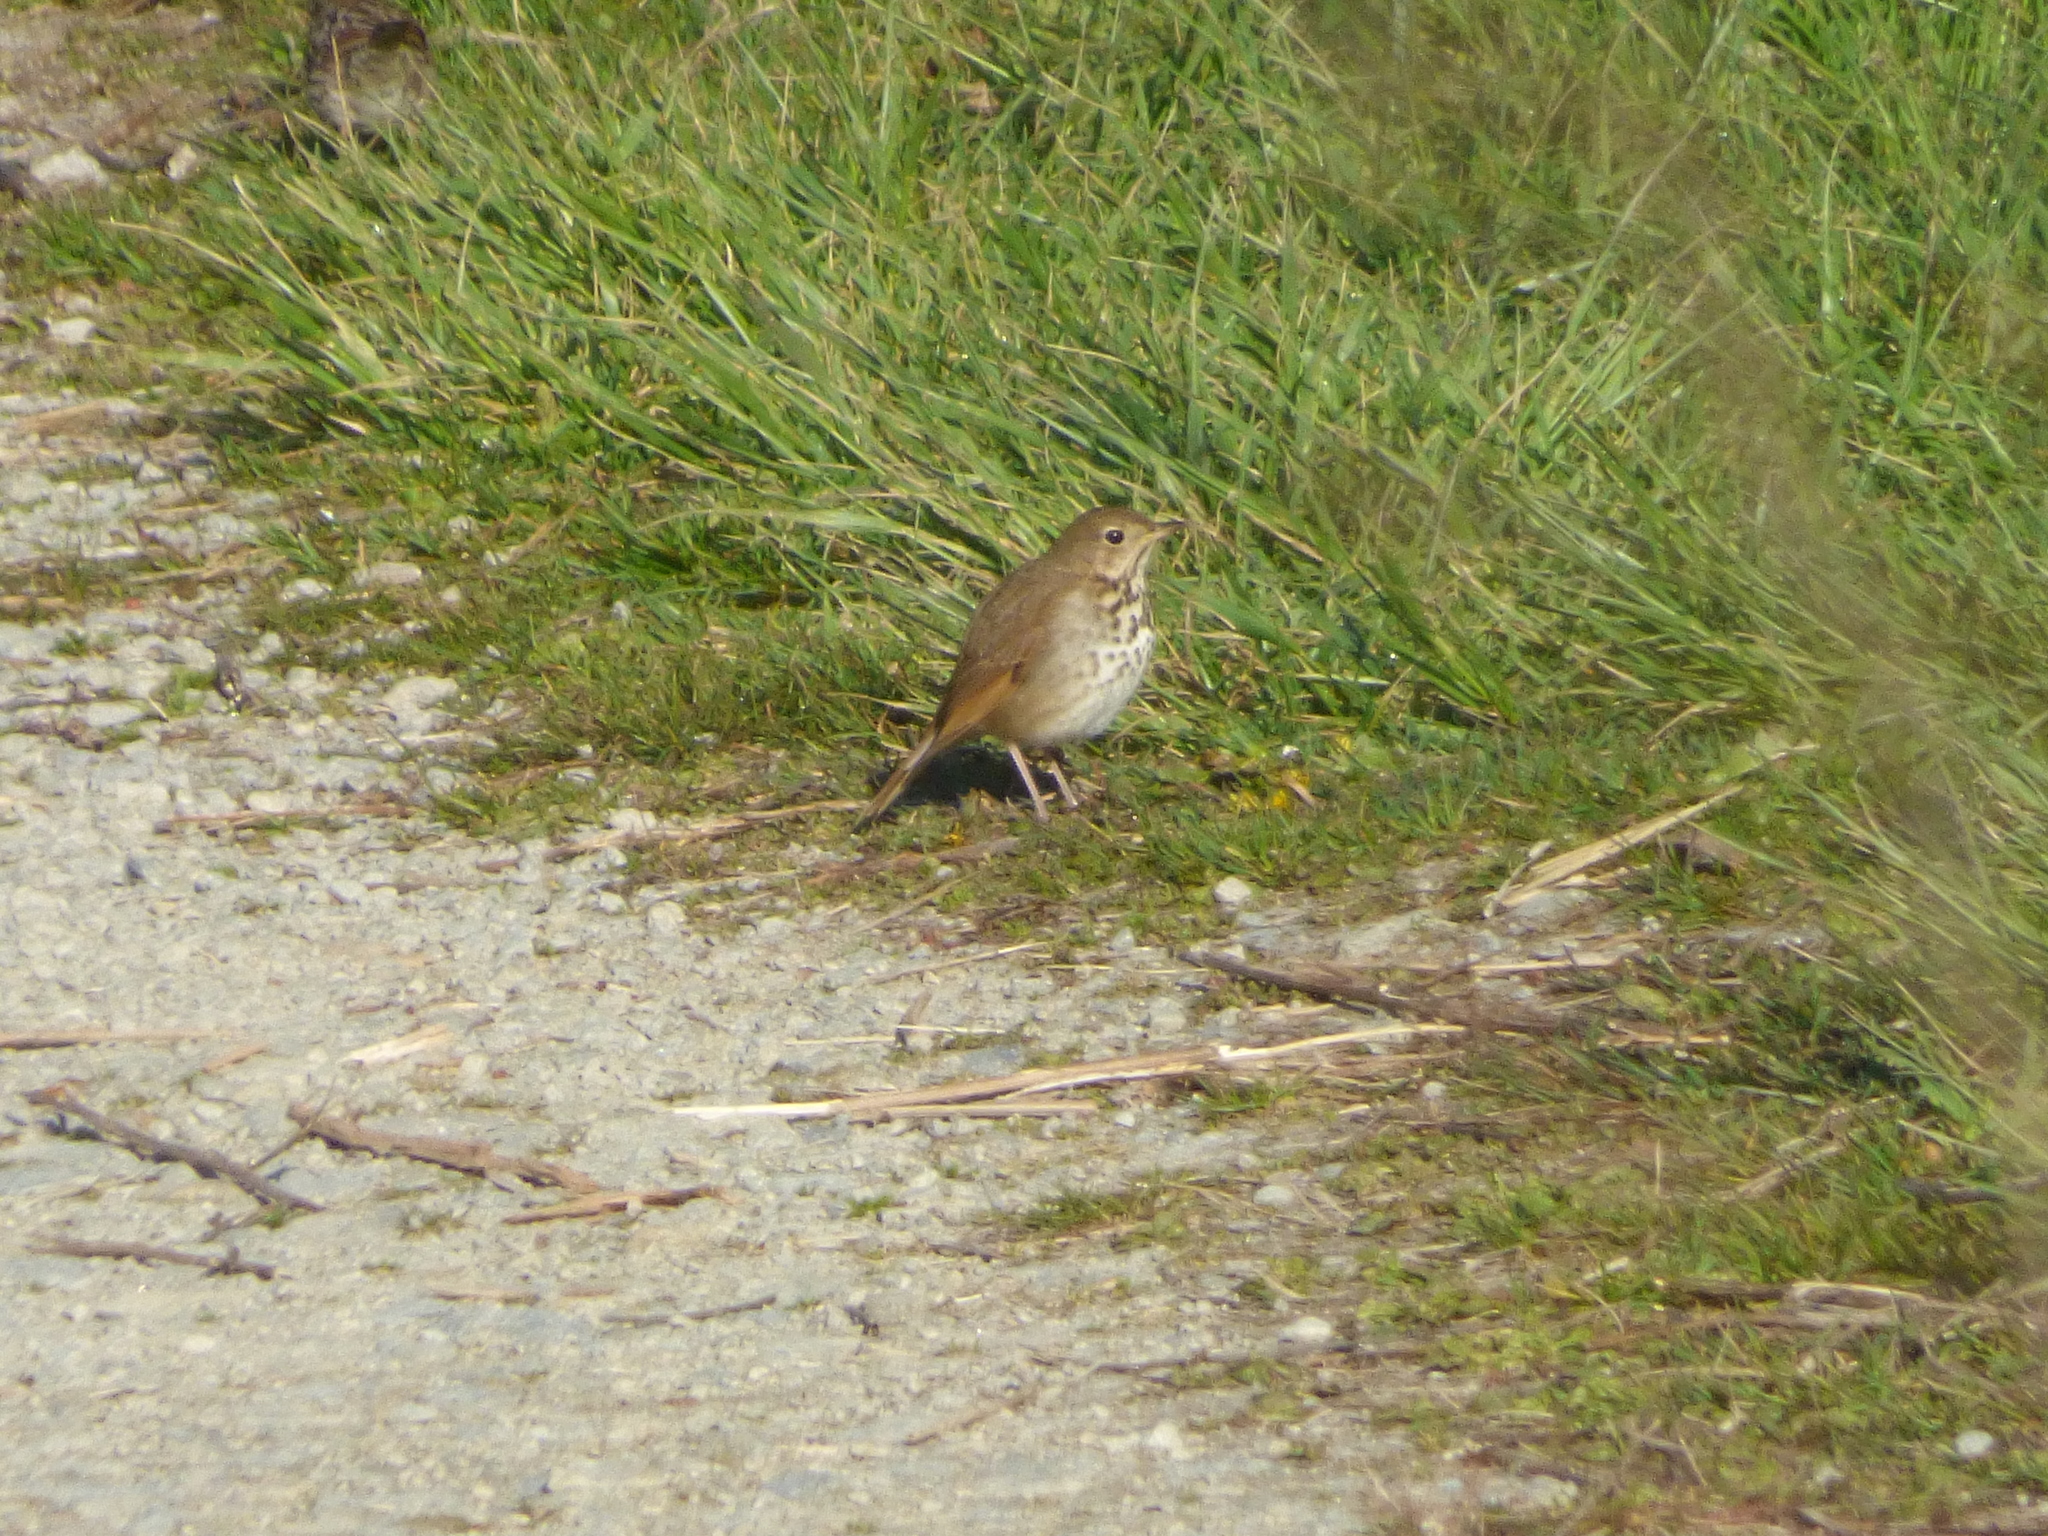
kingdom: Animalia
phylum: Chordata
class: Aves
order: Passeriformes
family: Turdidae
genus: Catharus
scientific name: Catharus guttatus
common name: Hermit thrush
